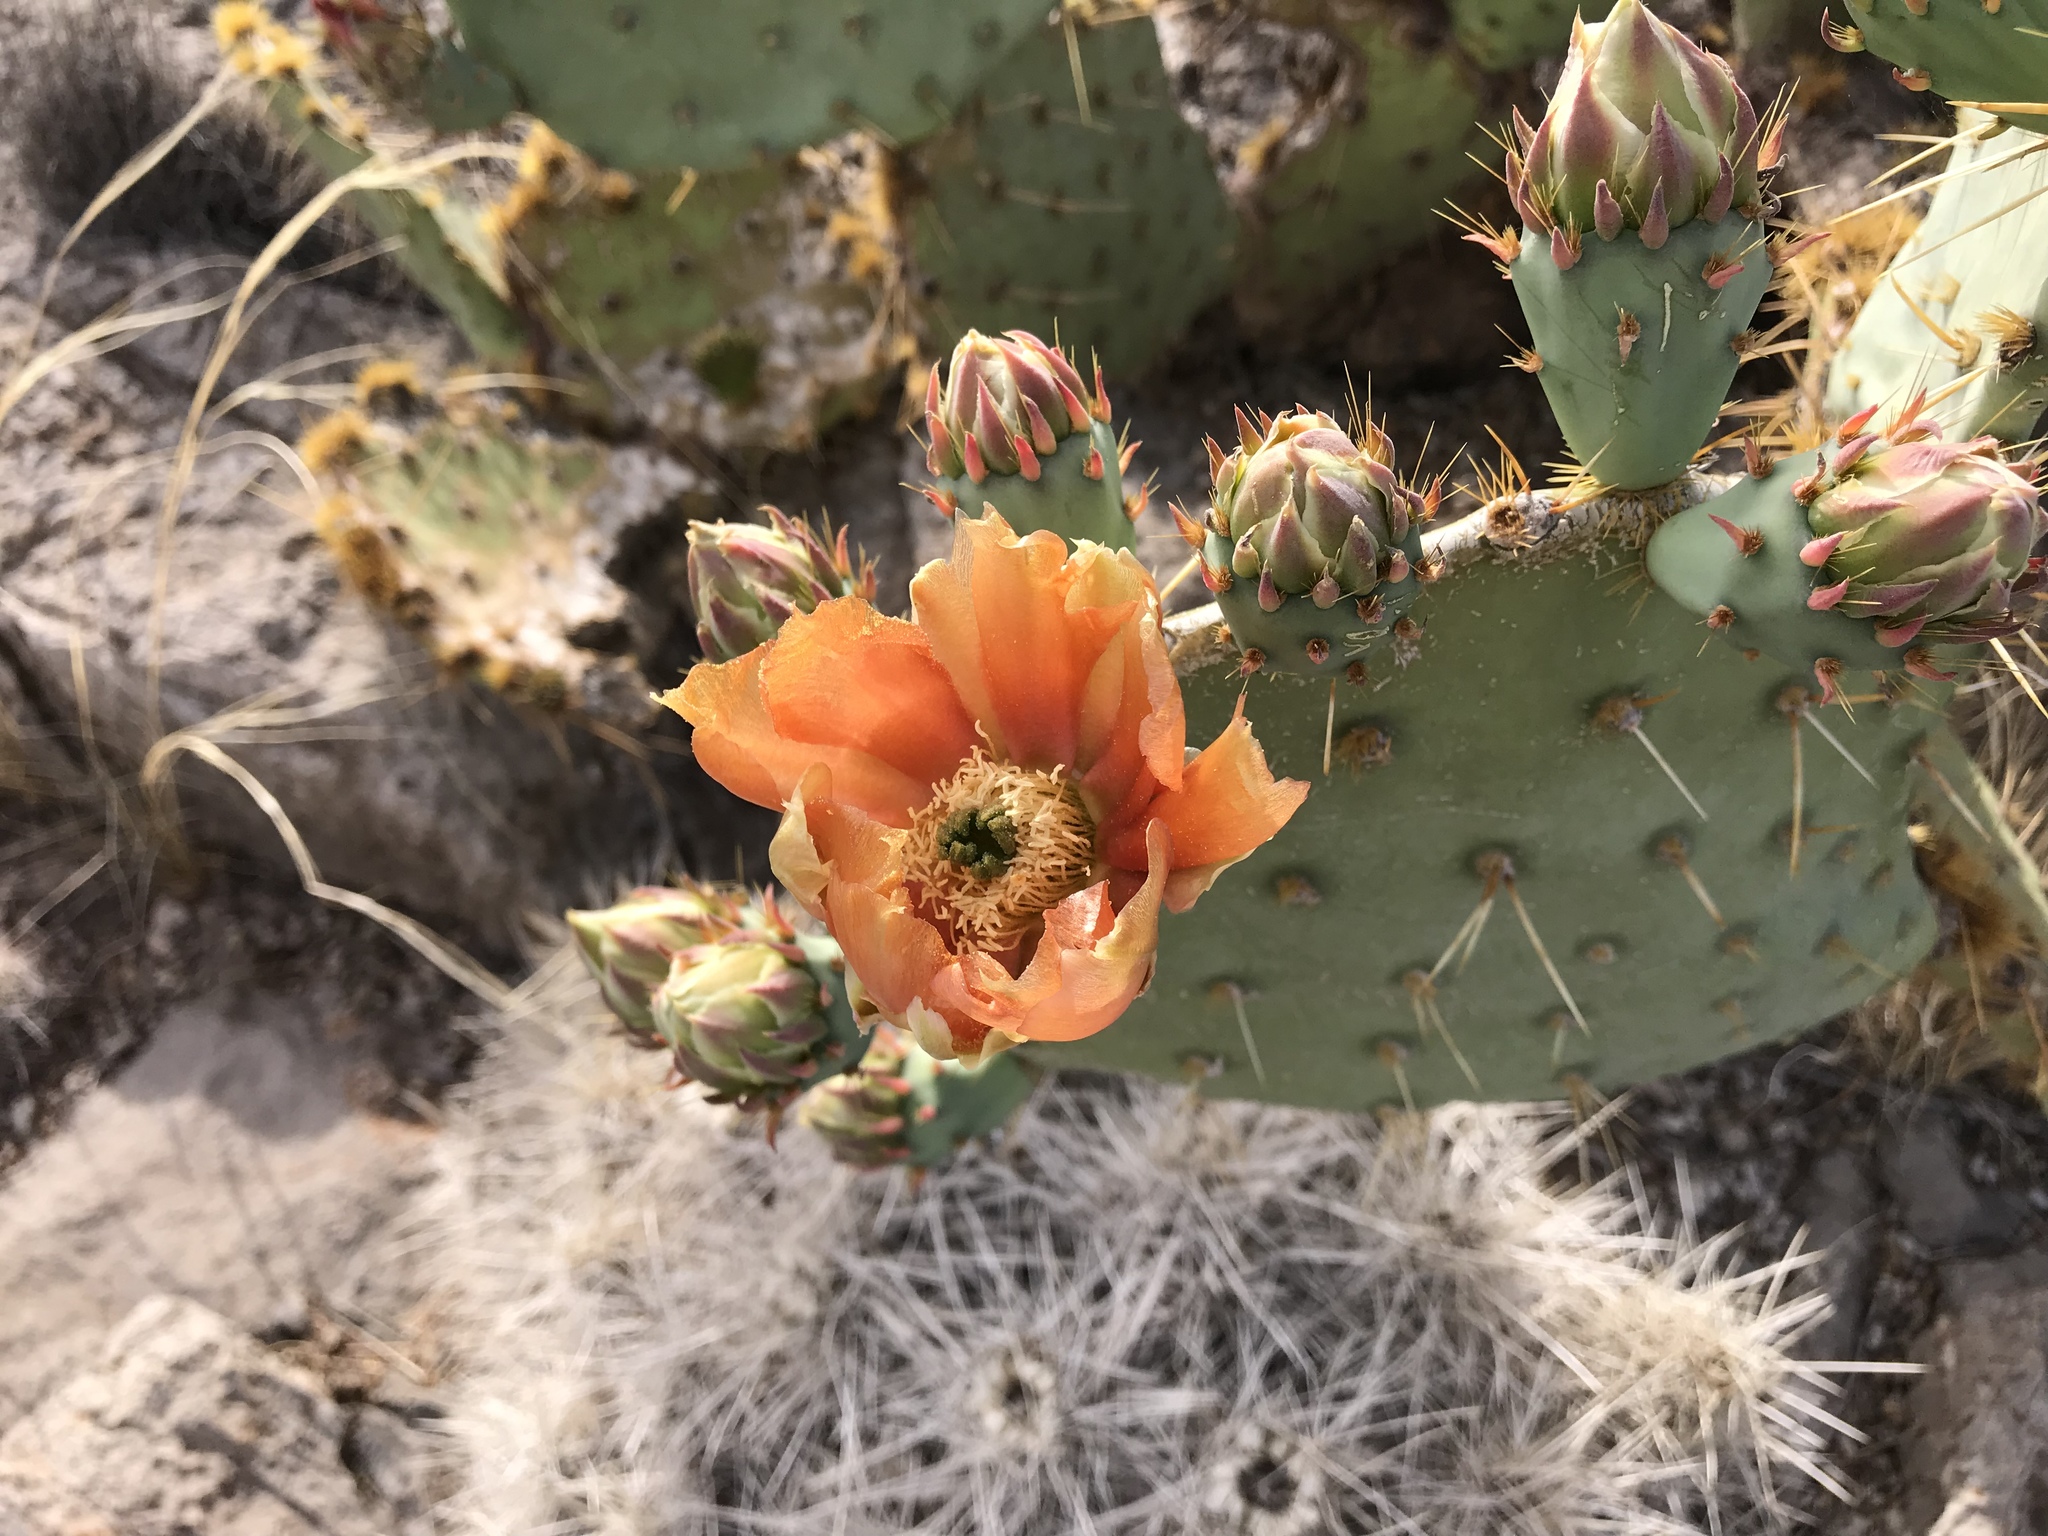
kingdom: Plantae
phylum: Tracheophyta
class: Magnoliopsida
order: Caryophyllales
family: Cactaceae
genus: Opuntia
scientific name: Opuntia orbiculata
